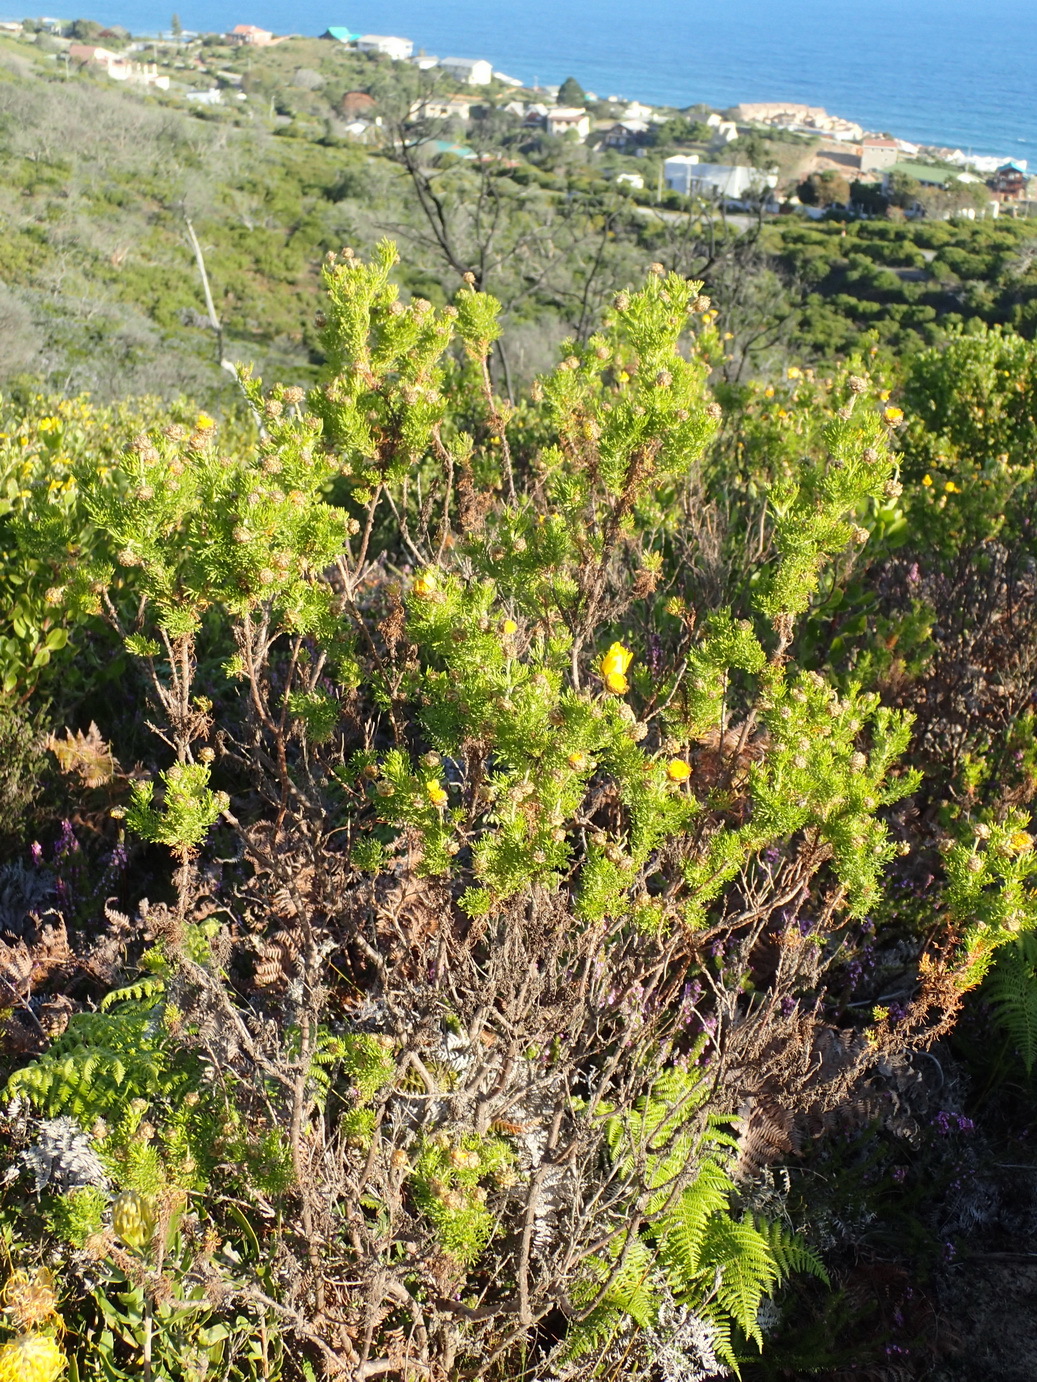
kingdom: Plantae
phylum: Tracheophyta
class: Magnoliopsida
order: Asterales
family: Asteraceae
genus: Ursinia
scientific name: Ursinia scariosa
